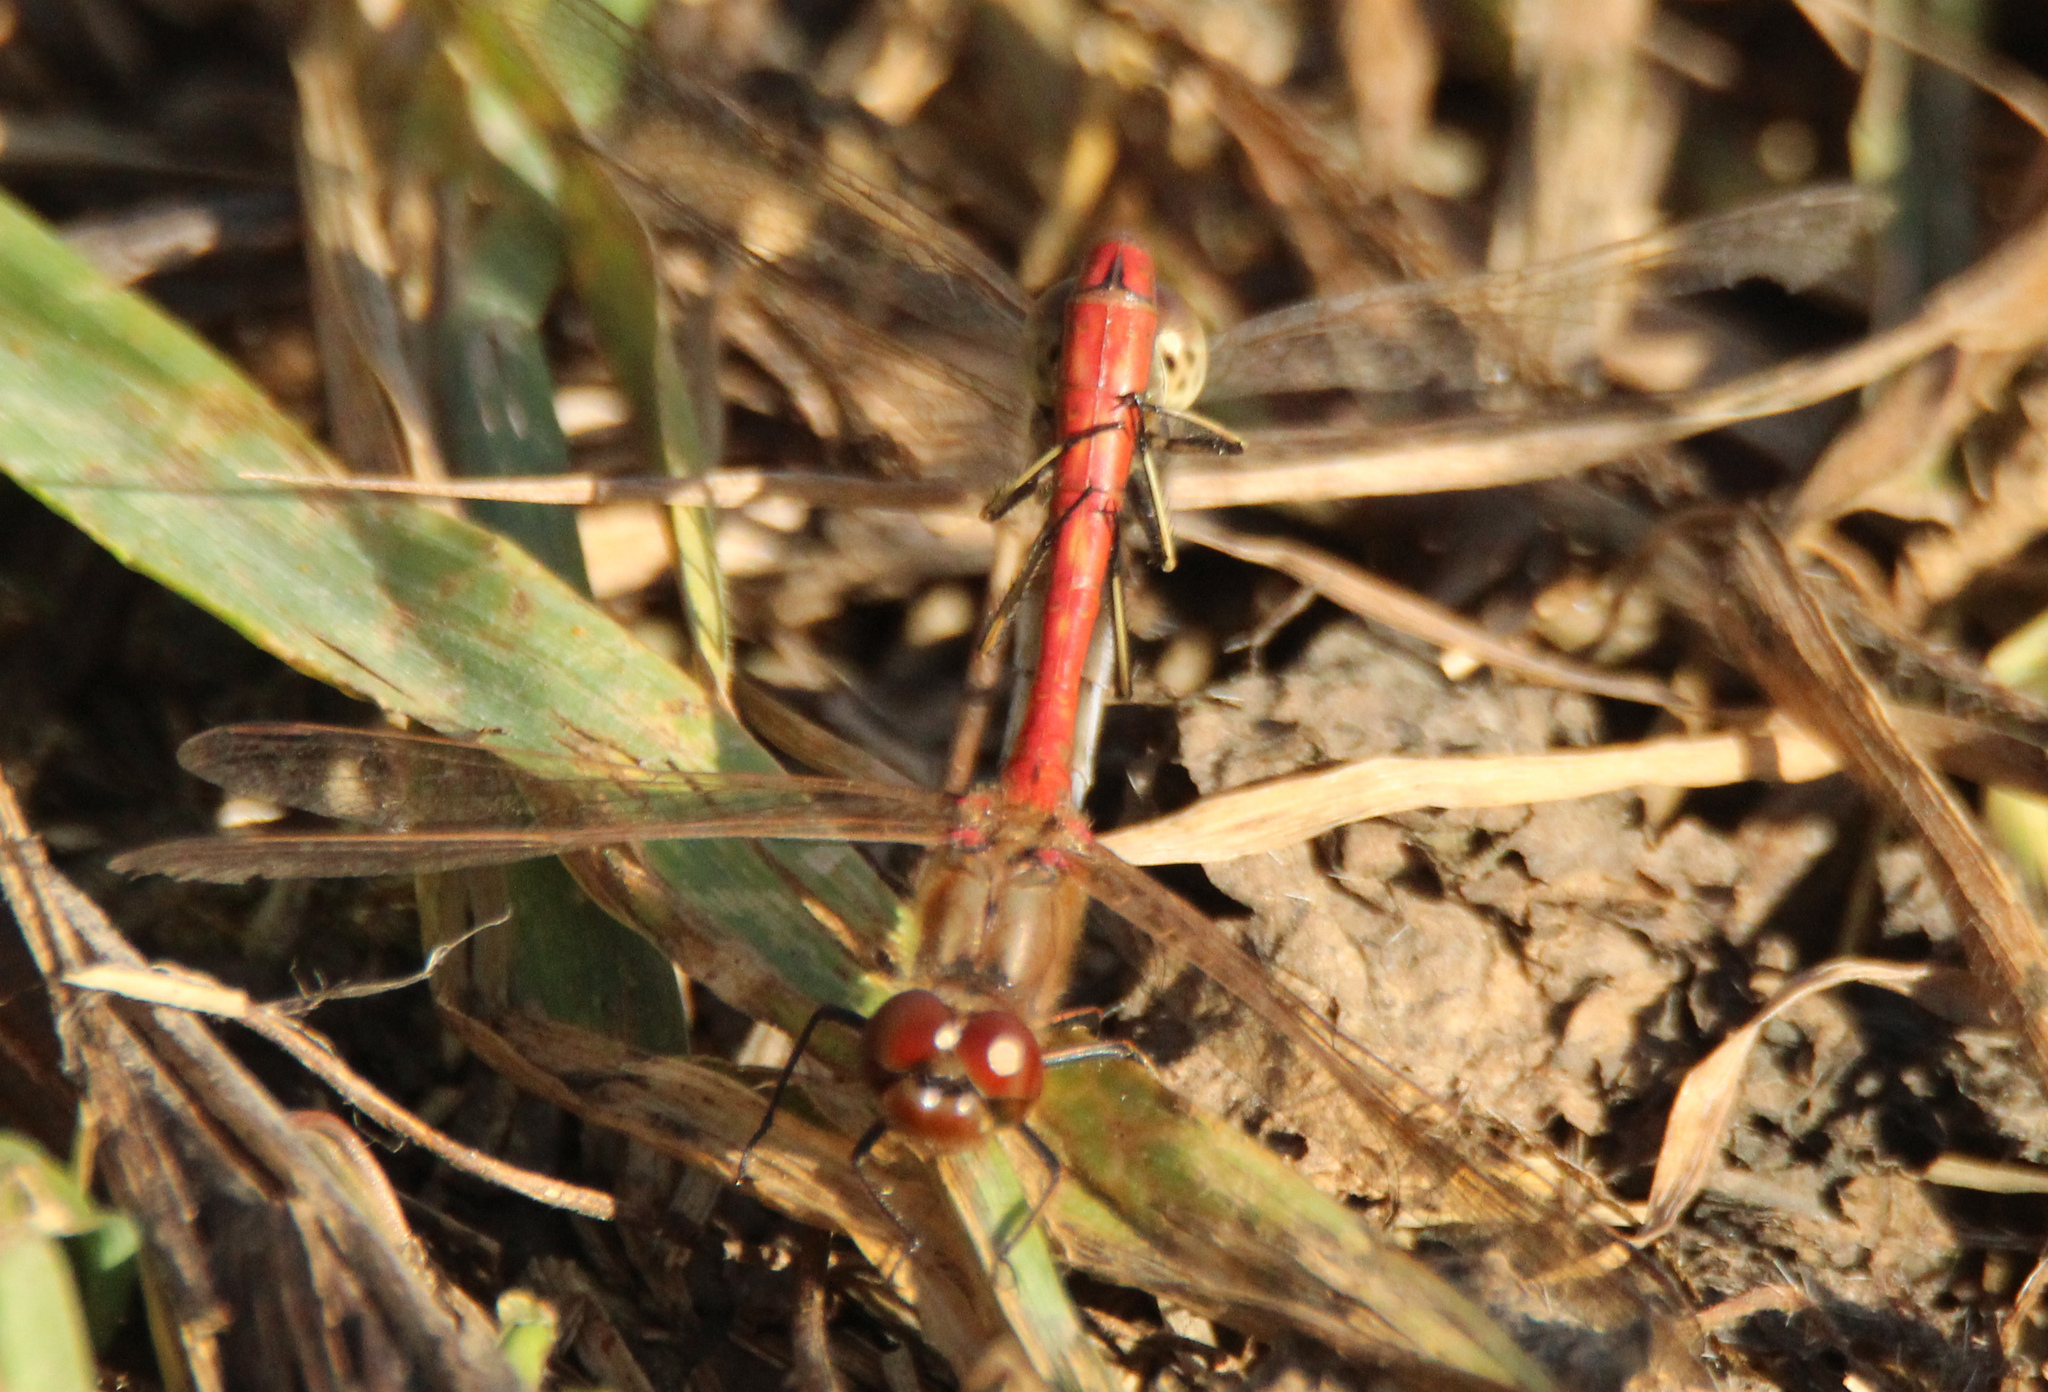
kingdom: Animalia
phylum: Arthropoda
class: Insecta
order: Odonata
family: Libellulidae
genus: Sympetrum
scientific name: Sympetrum vulgatum
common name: Vagrant darter
